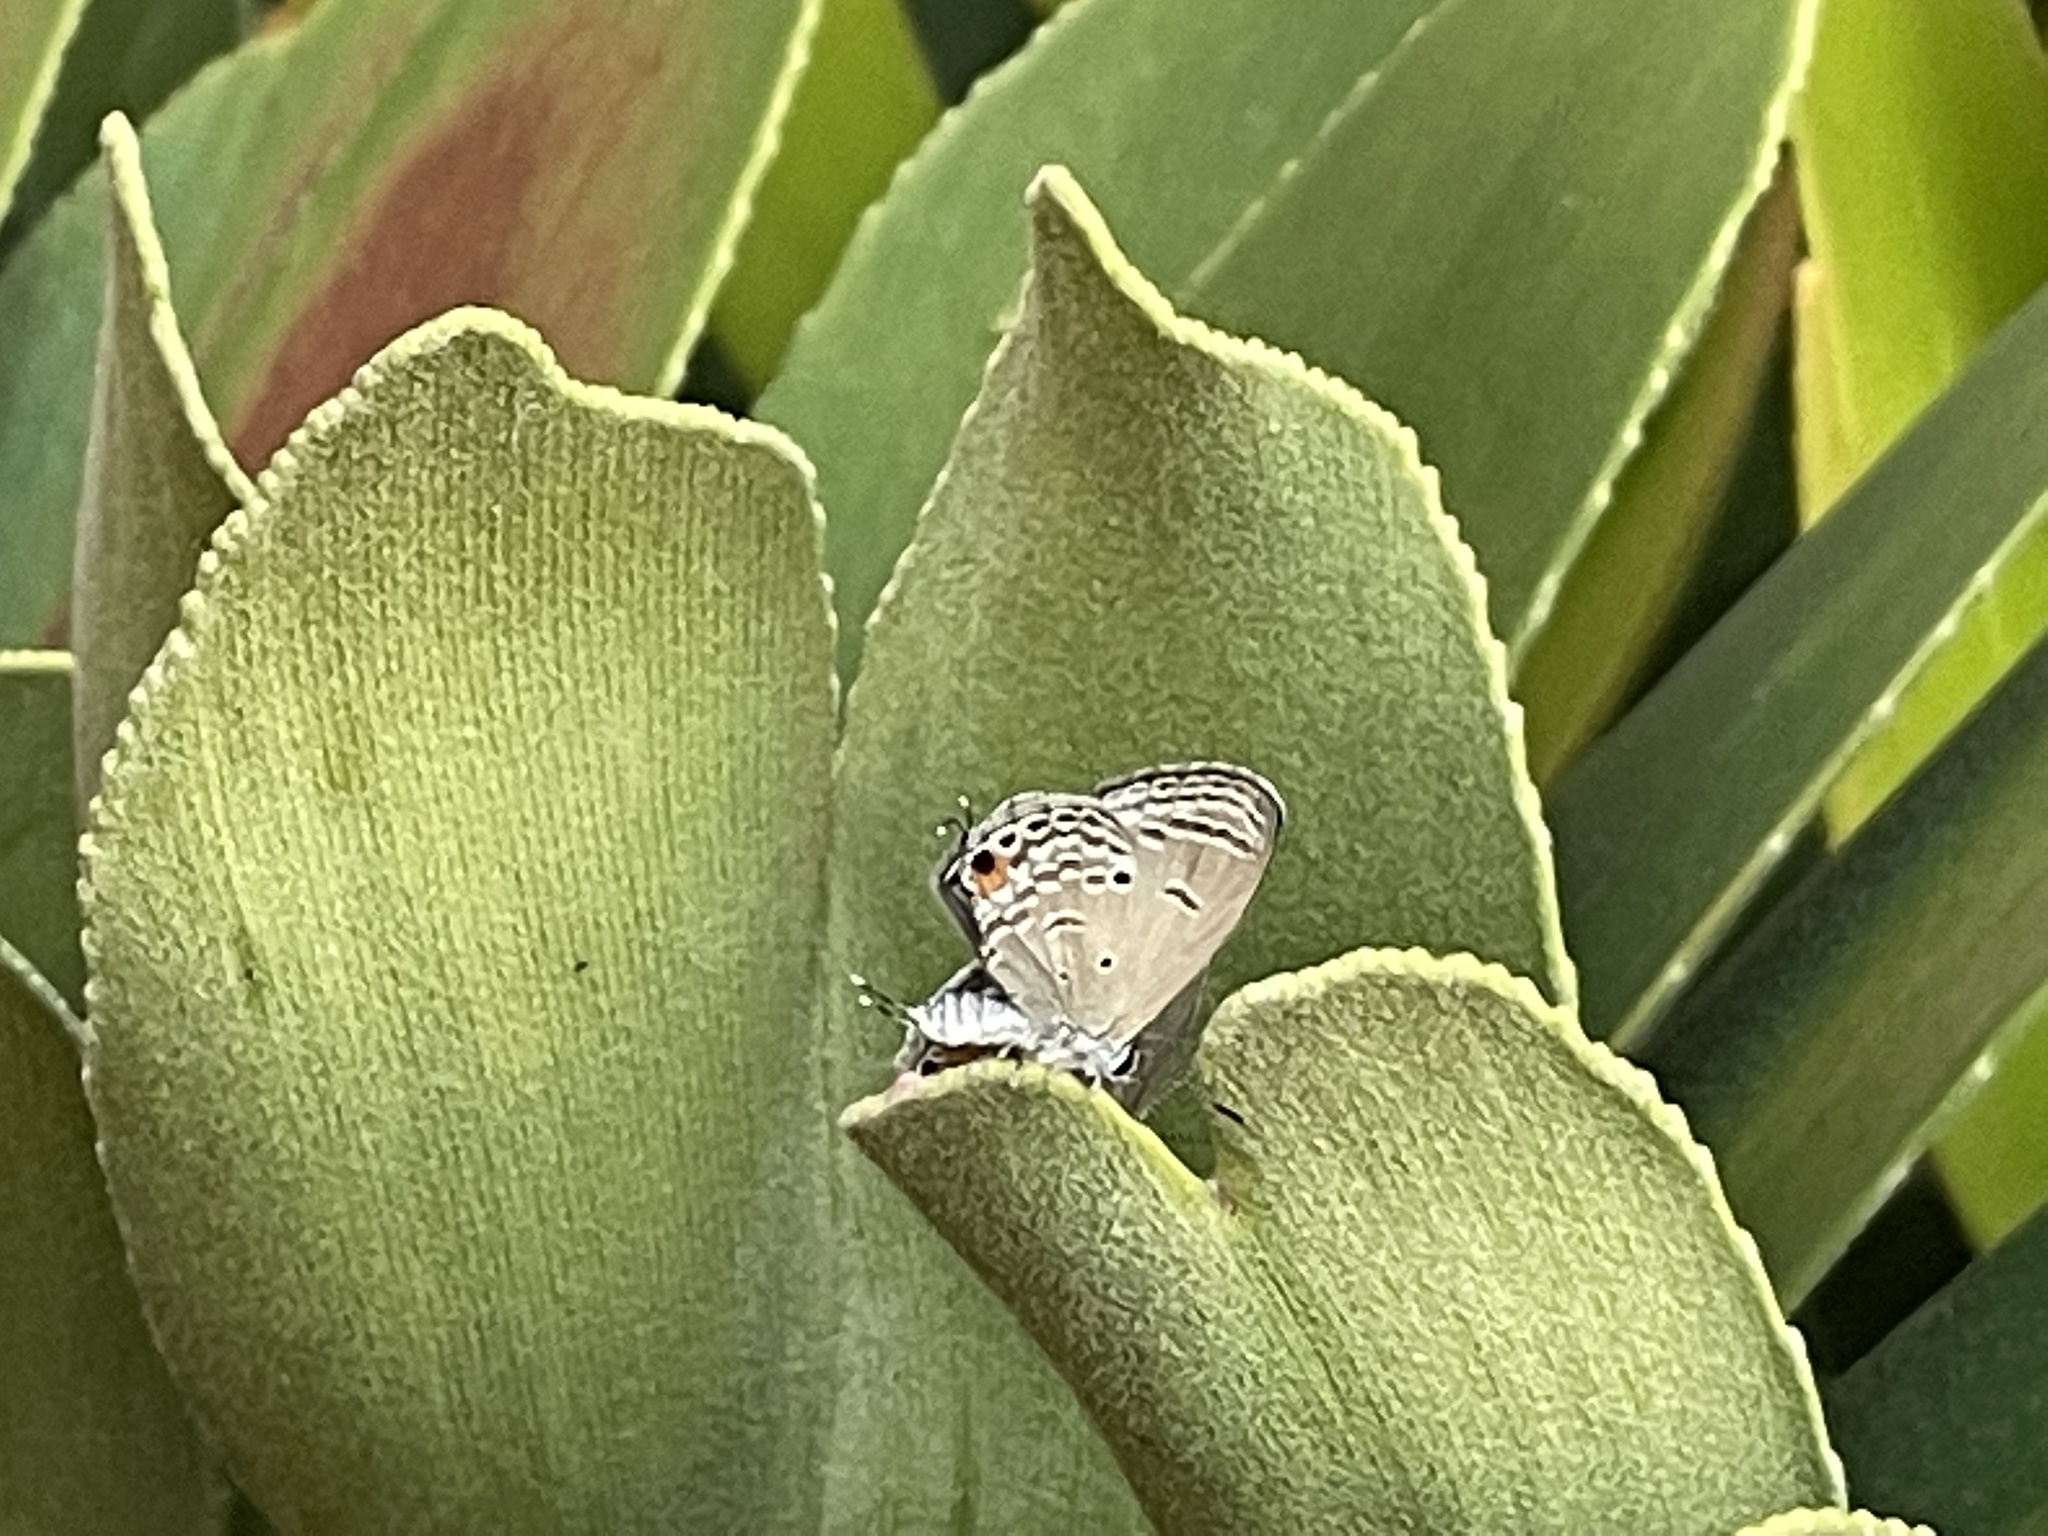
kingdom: Animalia
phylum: Arthropoda
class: Insecta
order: Lepidoptera
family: Lycaenidae
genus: Luthrodes
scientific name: Luthrodes pandava
